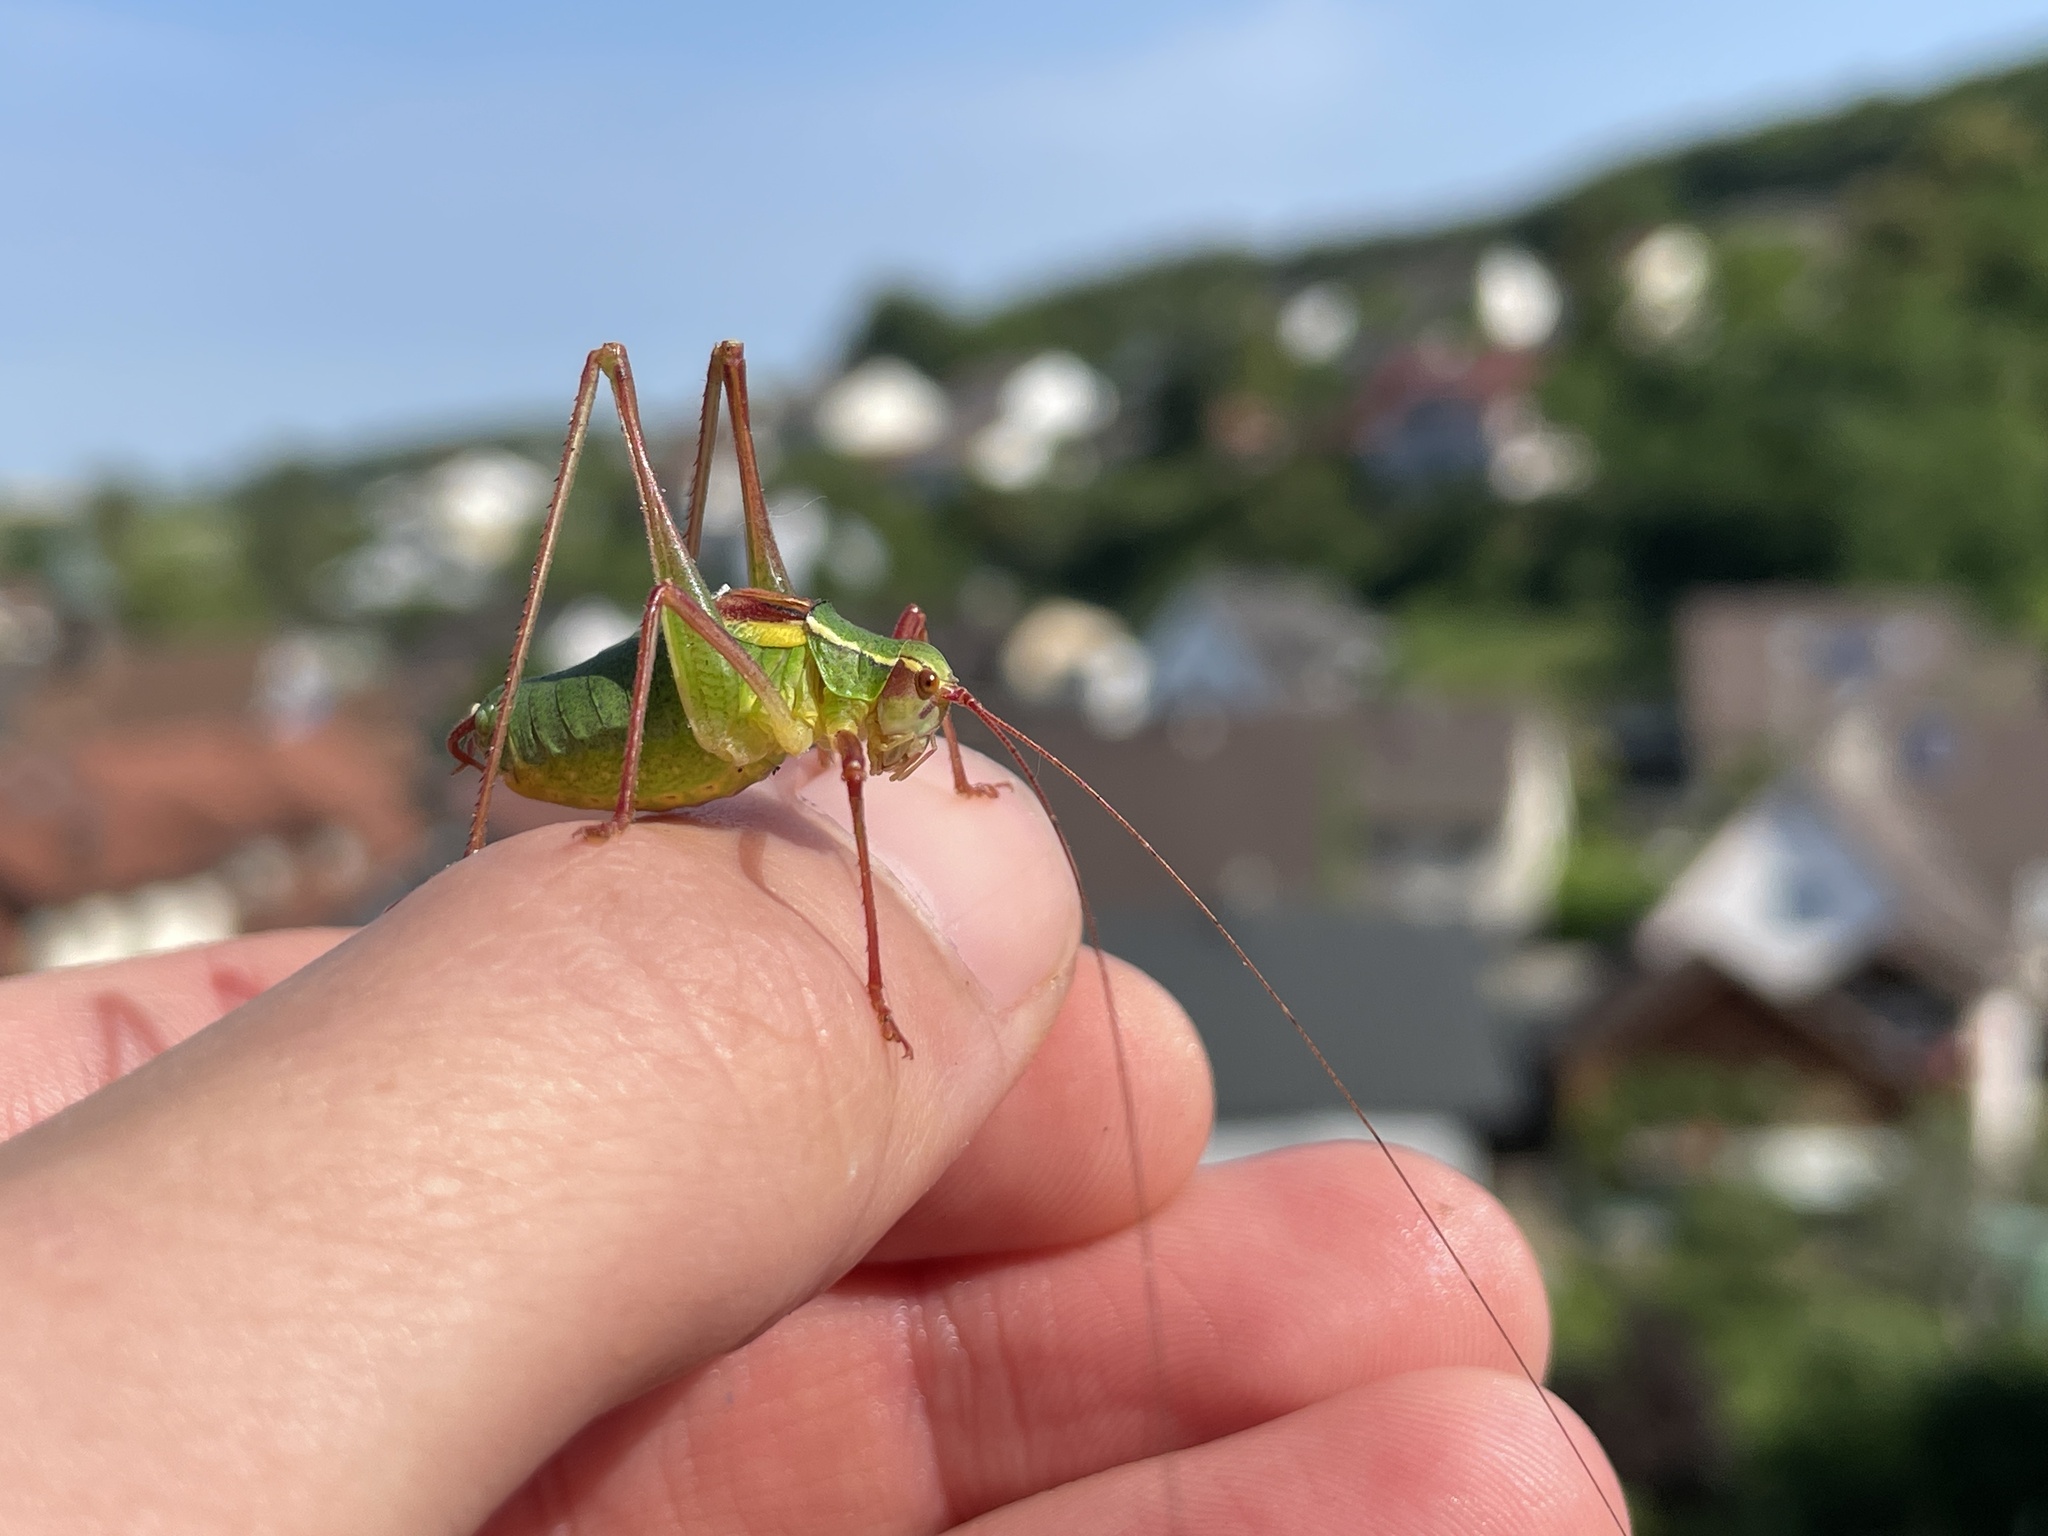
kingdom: Animalia
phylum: Arthropoda
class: Insecta
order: Orthoptera
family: Tettigoniidae
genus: Barbitistes
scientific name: Barbitistes serricauda
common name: Saw-tailed bush-cricket
